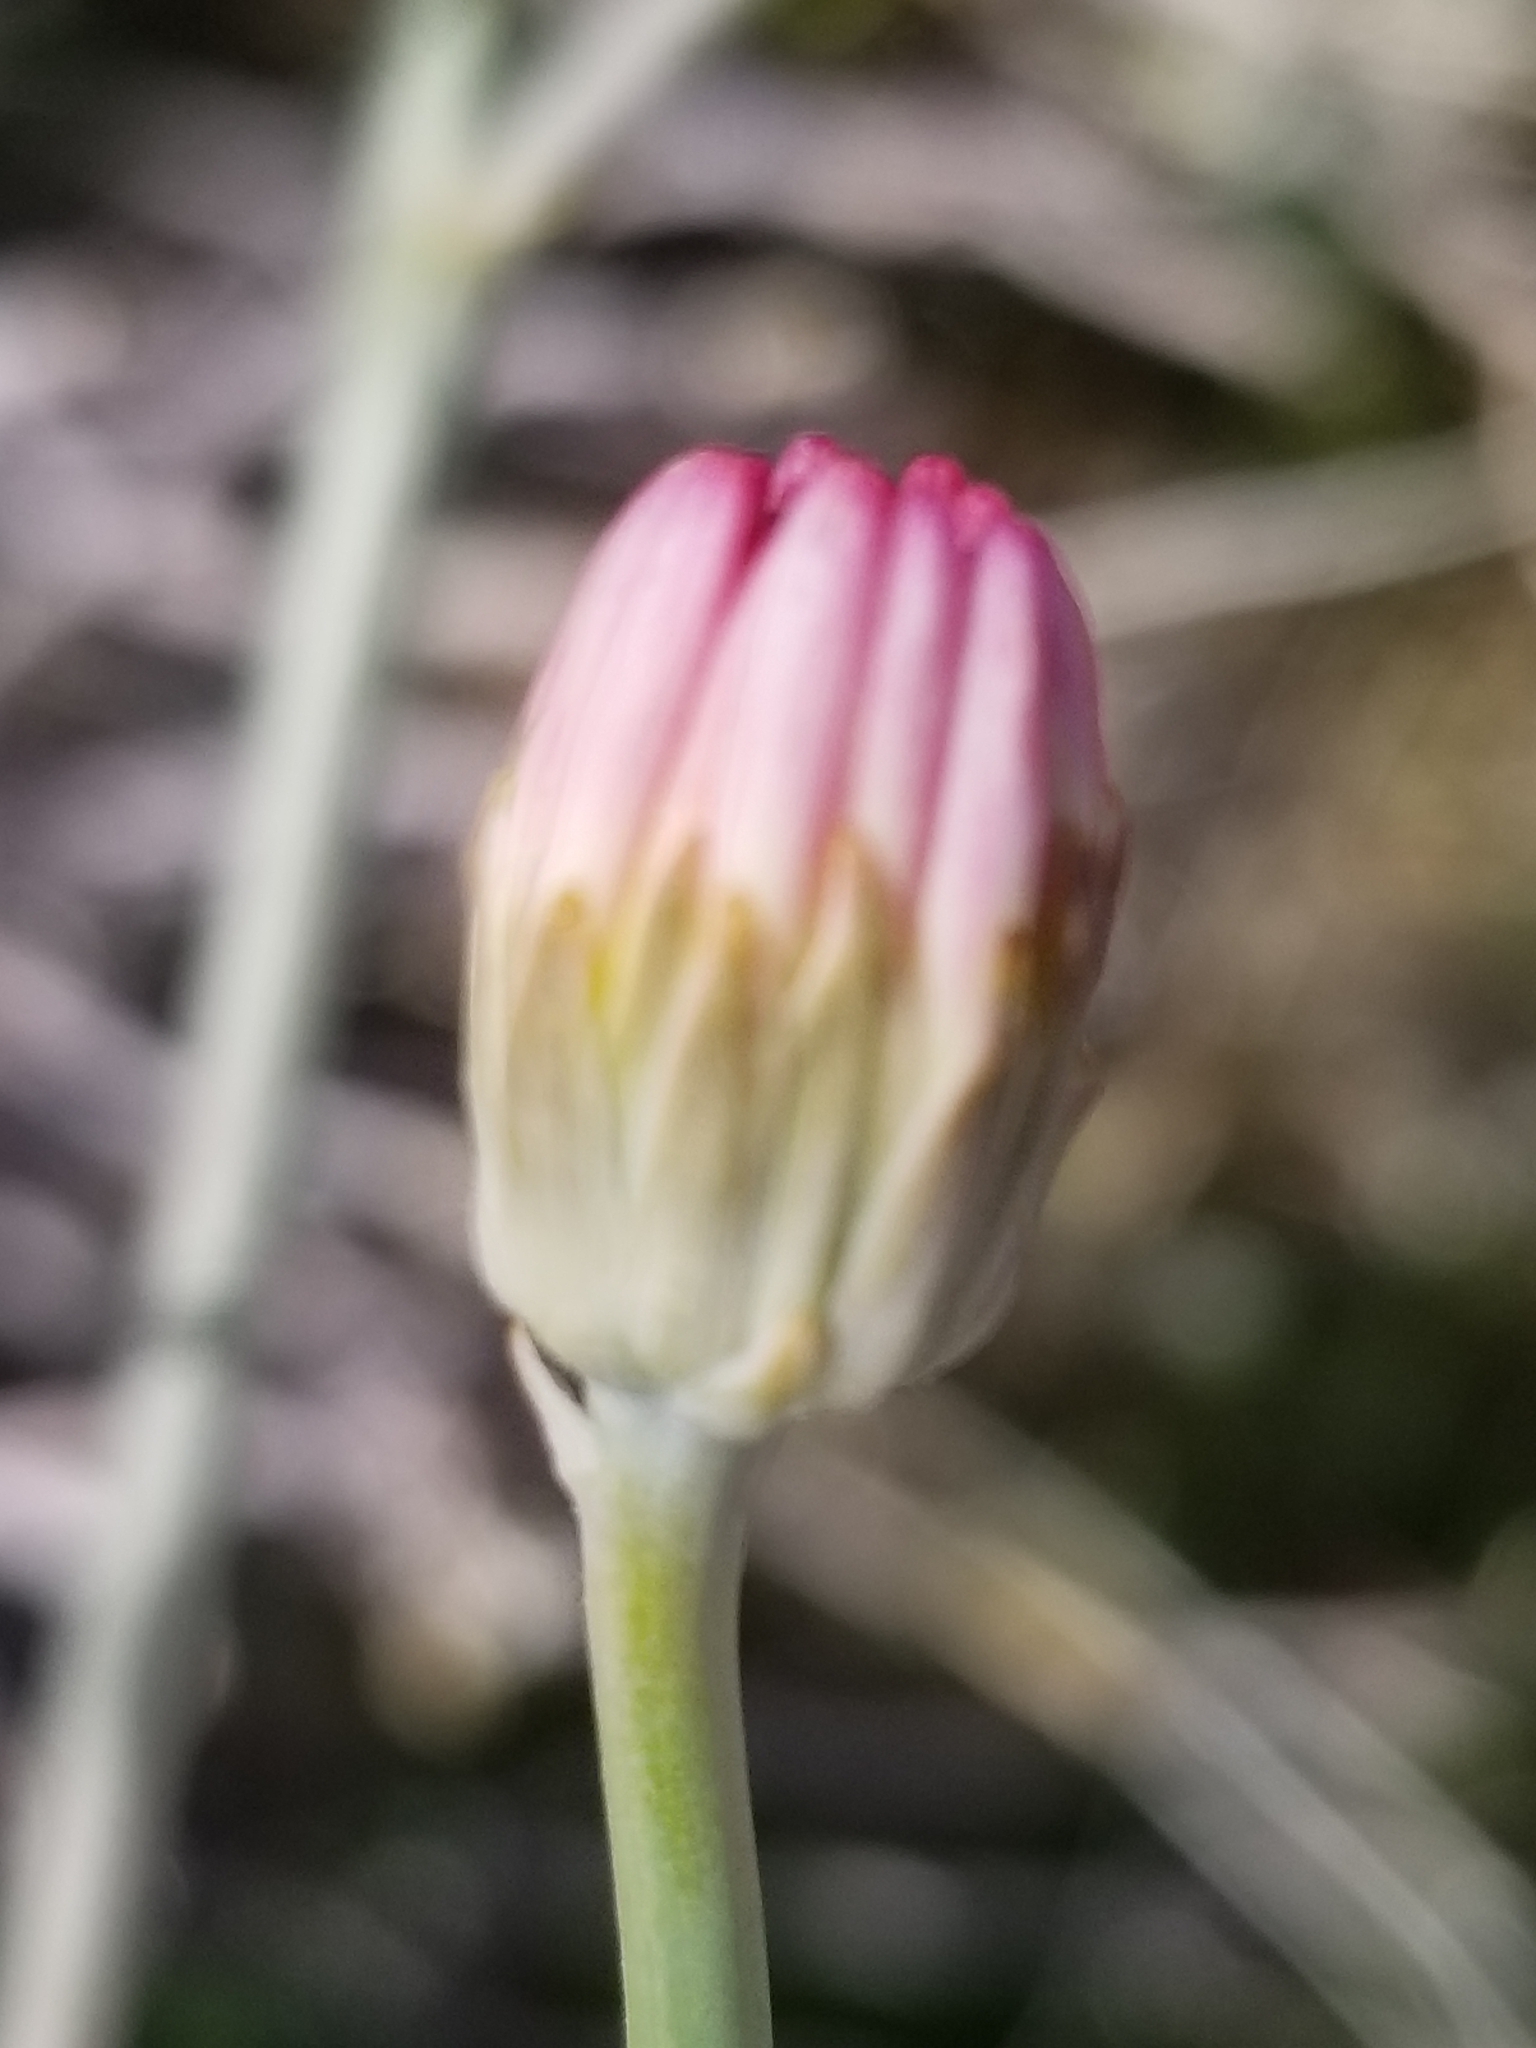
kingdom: Plantae
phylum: Tracheophyta
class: Magnoliopsida
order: Asterales
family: Asteraceae
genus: Atrichoseris
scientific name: Atrichoseris platyphylla
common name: Tobaccoweed
